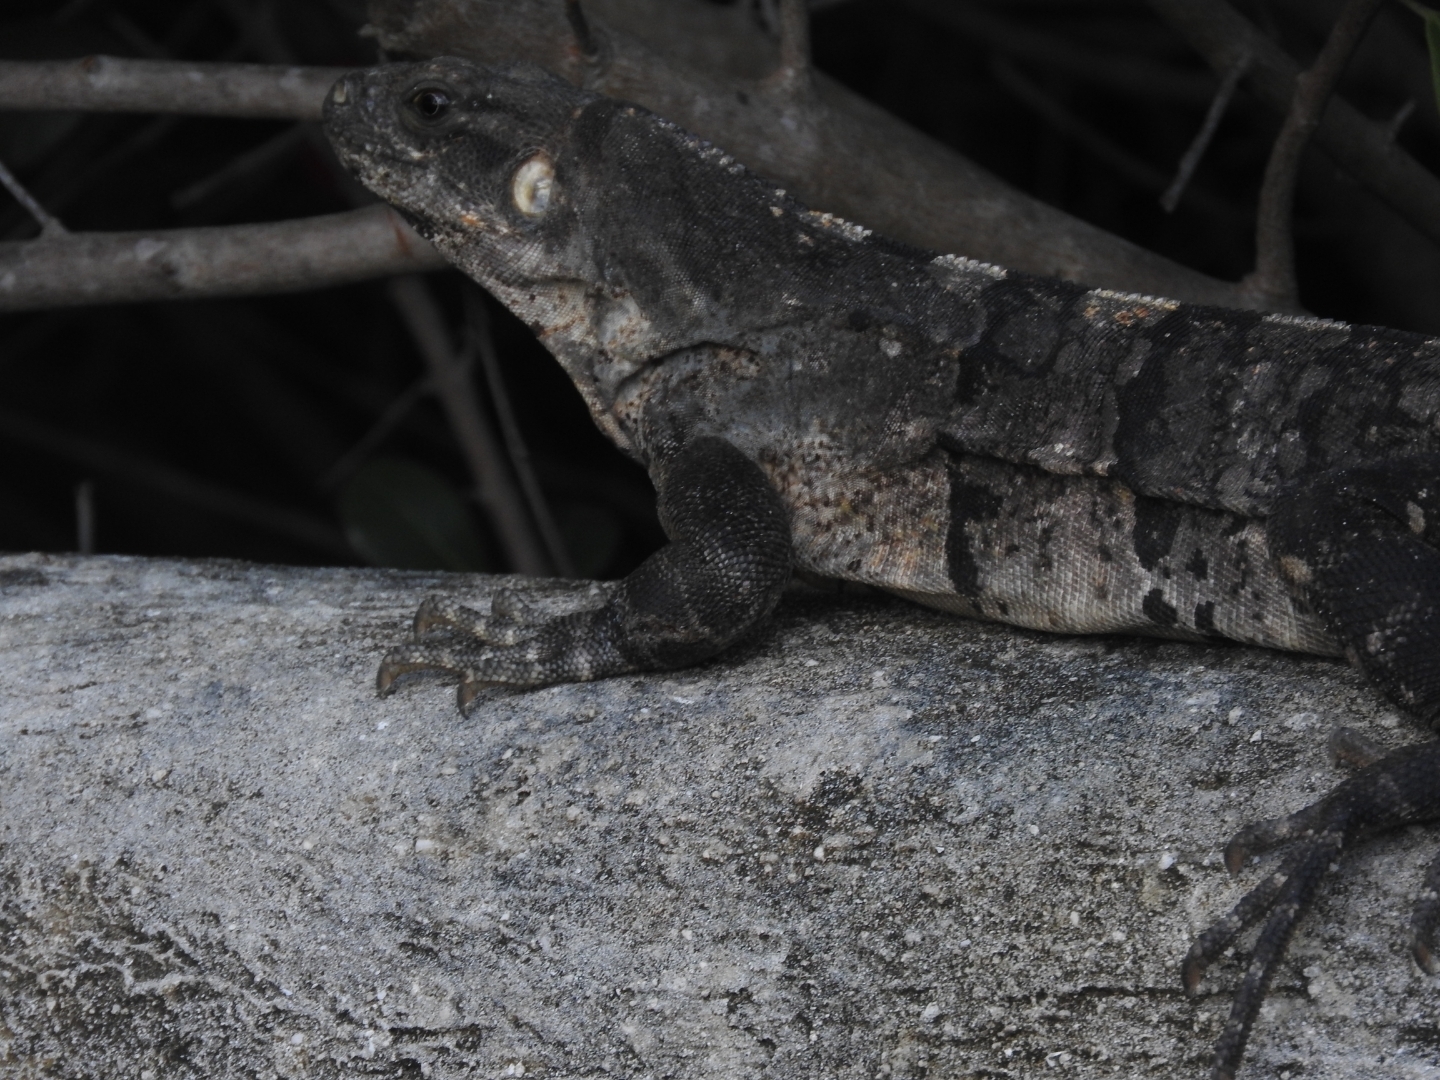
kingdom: Animalia
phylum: Chordata
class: Squamata
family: Iguanidae
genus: Ctenosaura
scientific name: Ctenosaura similis
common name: Black spiny-tailed iguana
